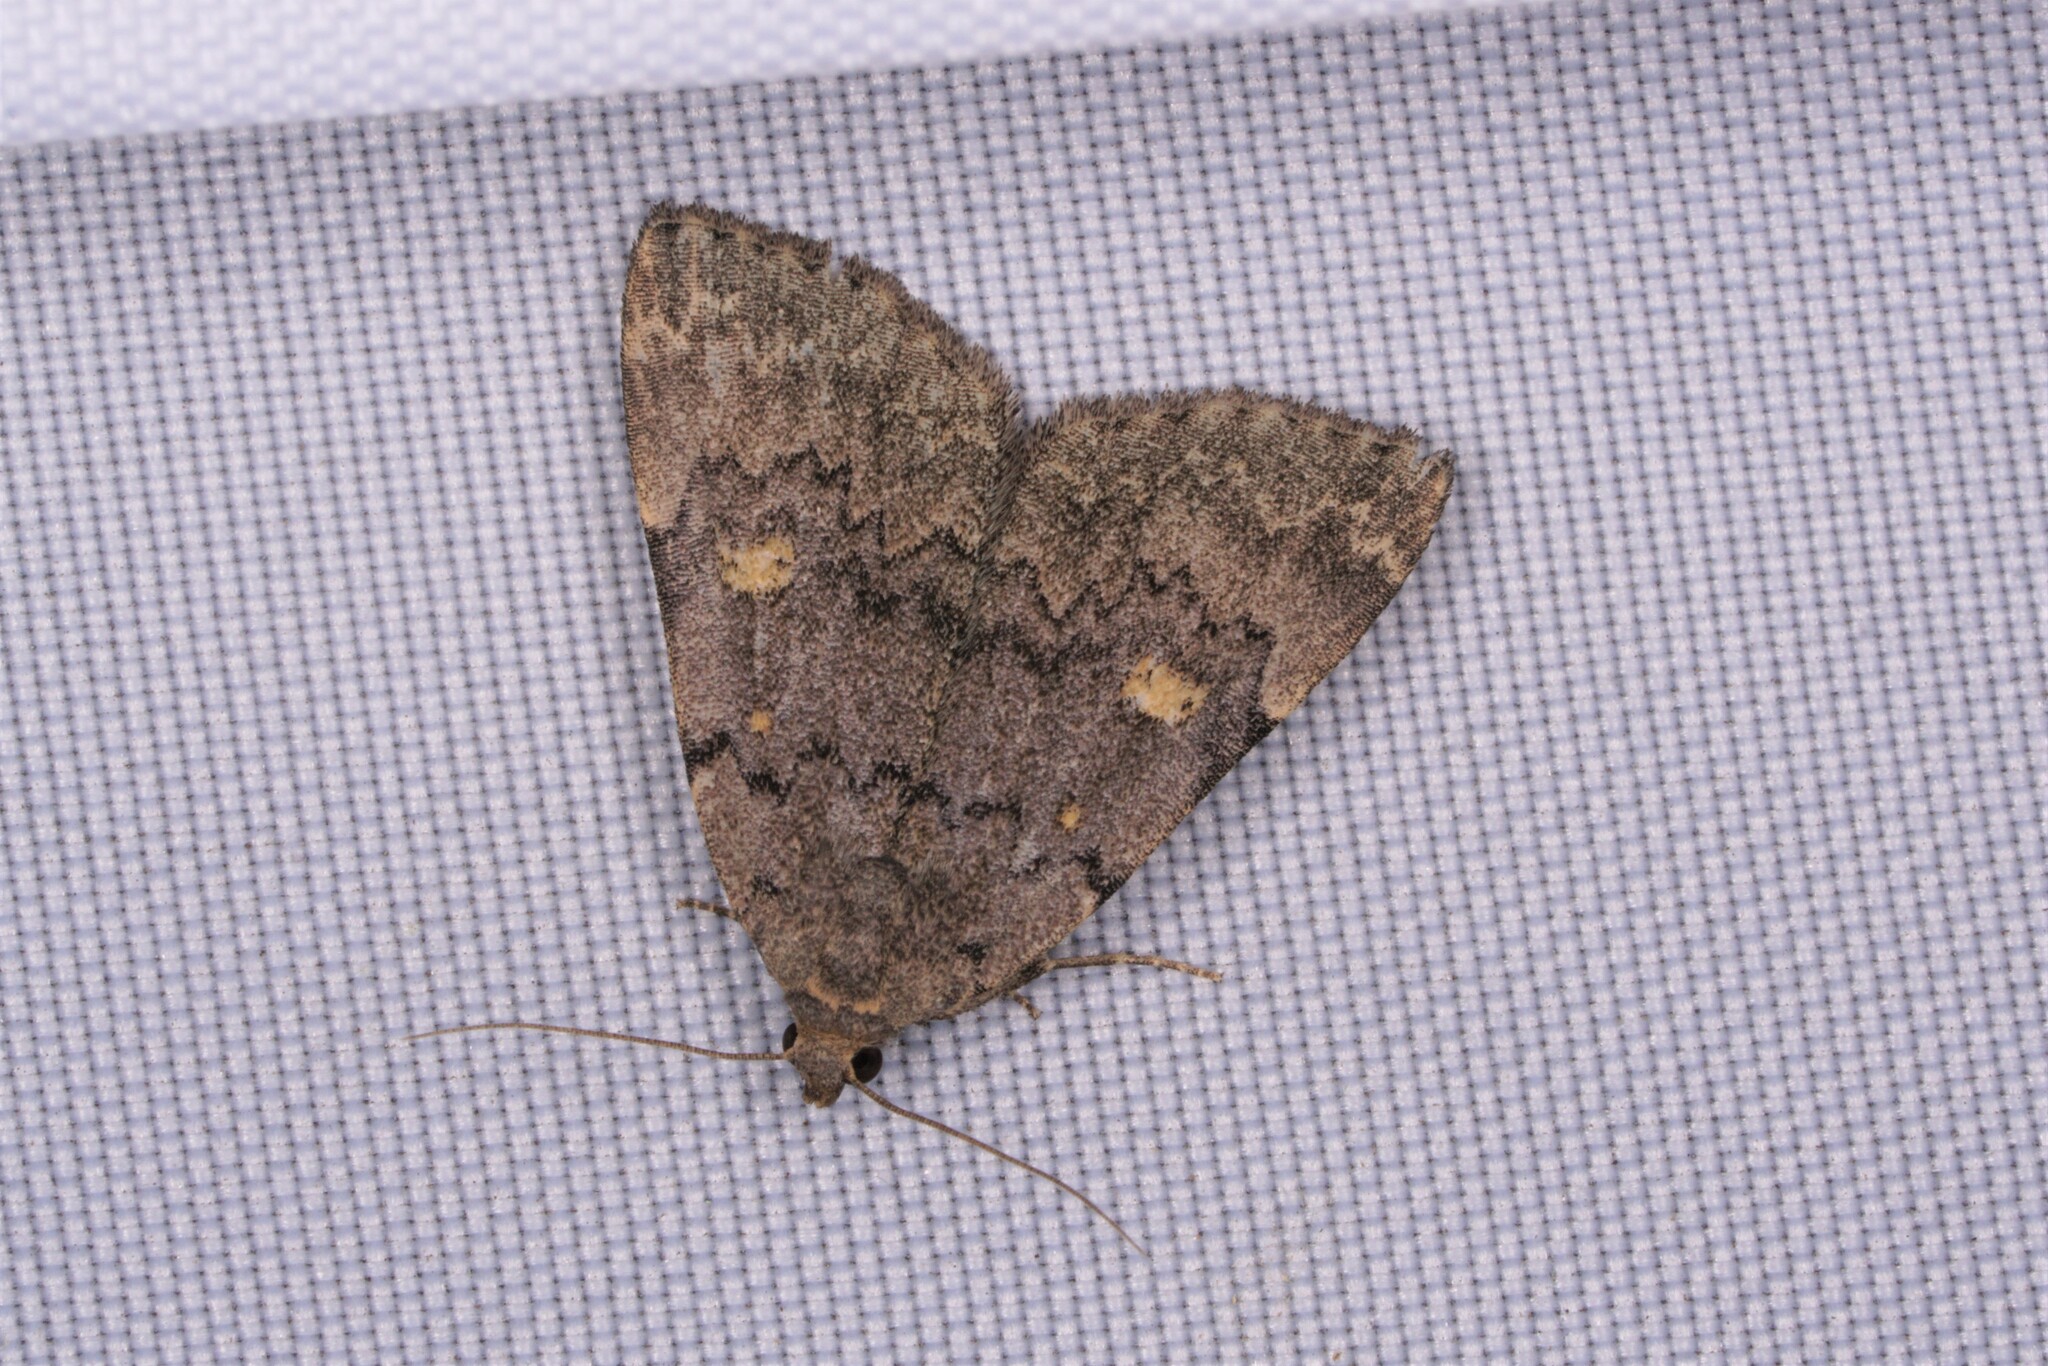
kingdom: Animalia
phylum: Arthropoda
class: Insecta
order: Lepidoptera
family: Erebidae
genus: Idia
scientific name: Idia aemula
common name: Common idia moth
